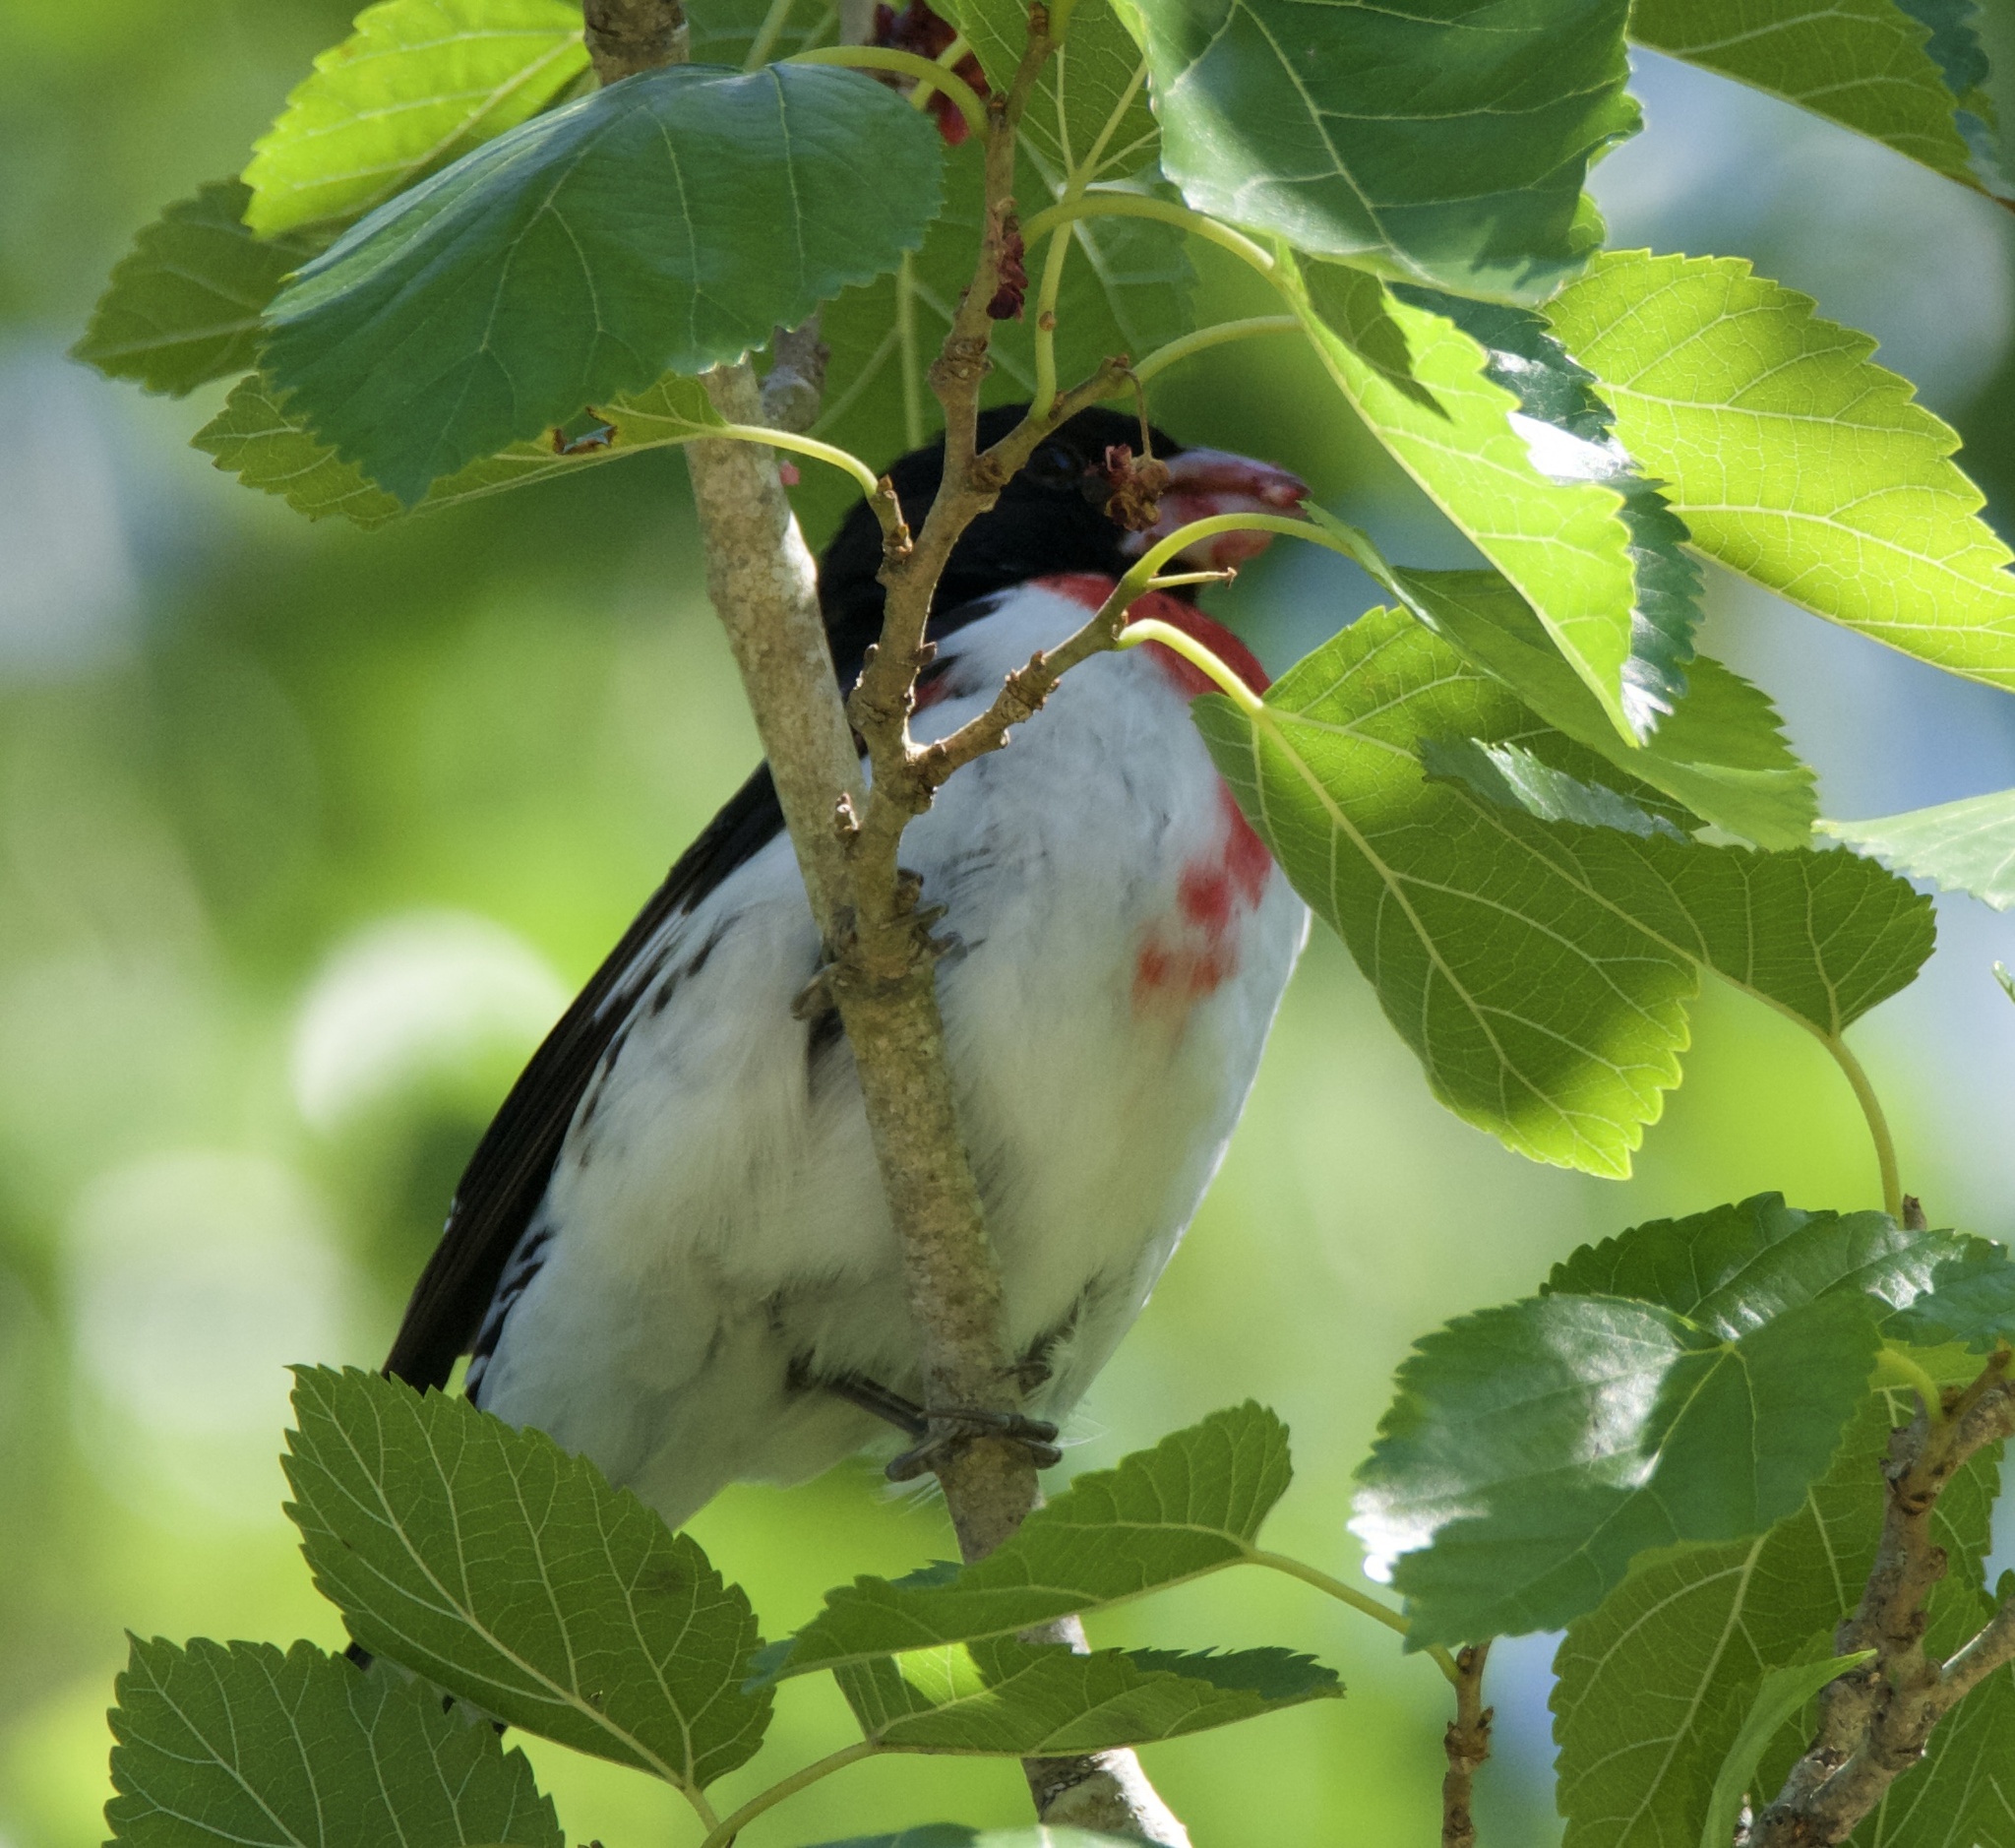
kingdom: Animalia
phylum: Chordata
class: Aves
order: Passeriformes
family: Cardinalidae
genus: Pheucticus
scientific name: Pheucticus ludovicianus
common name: Rose-breasted grosbeak
